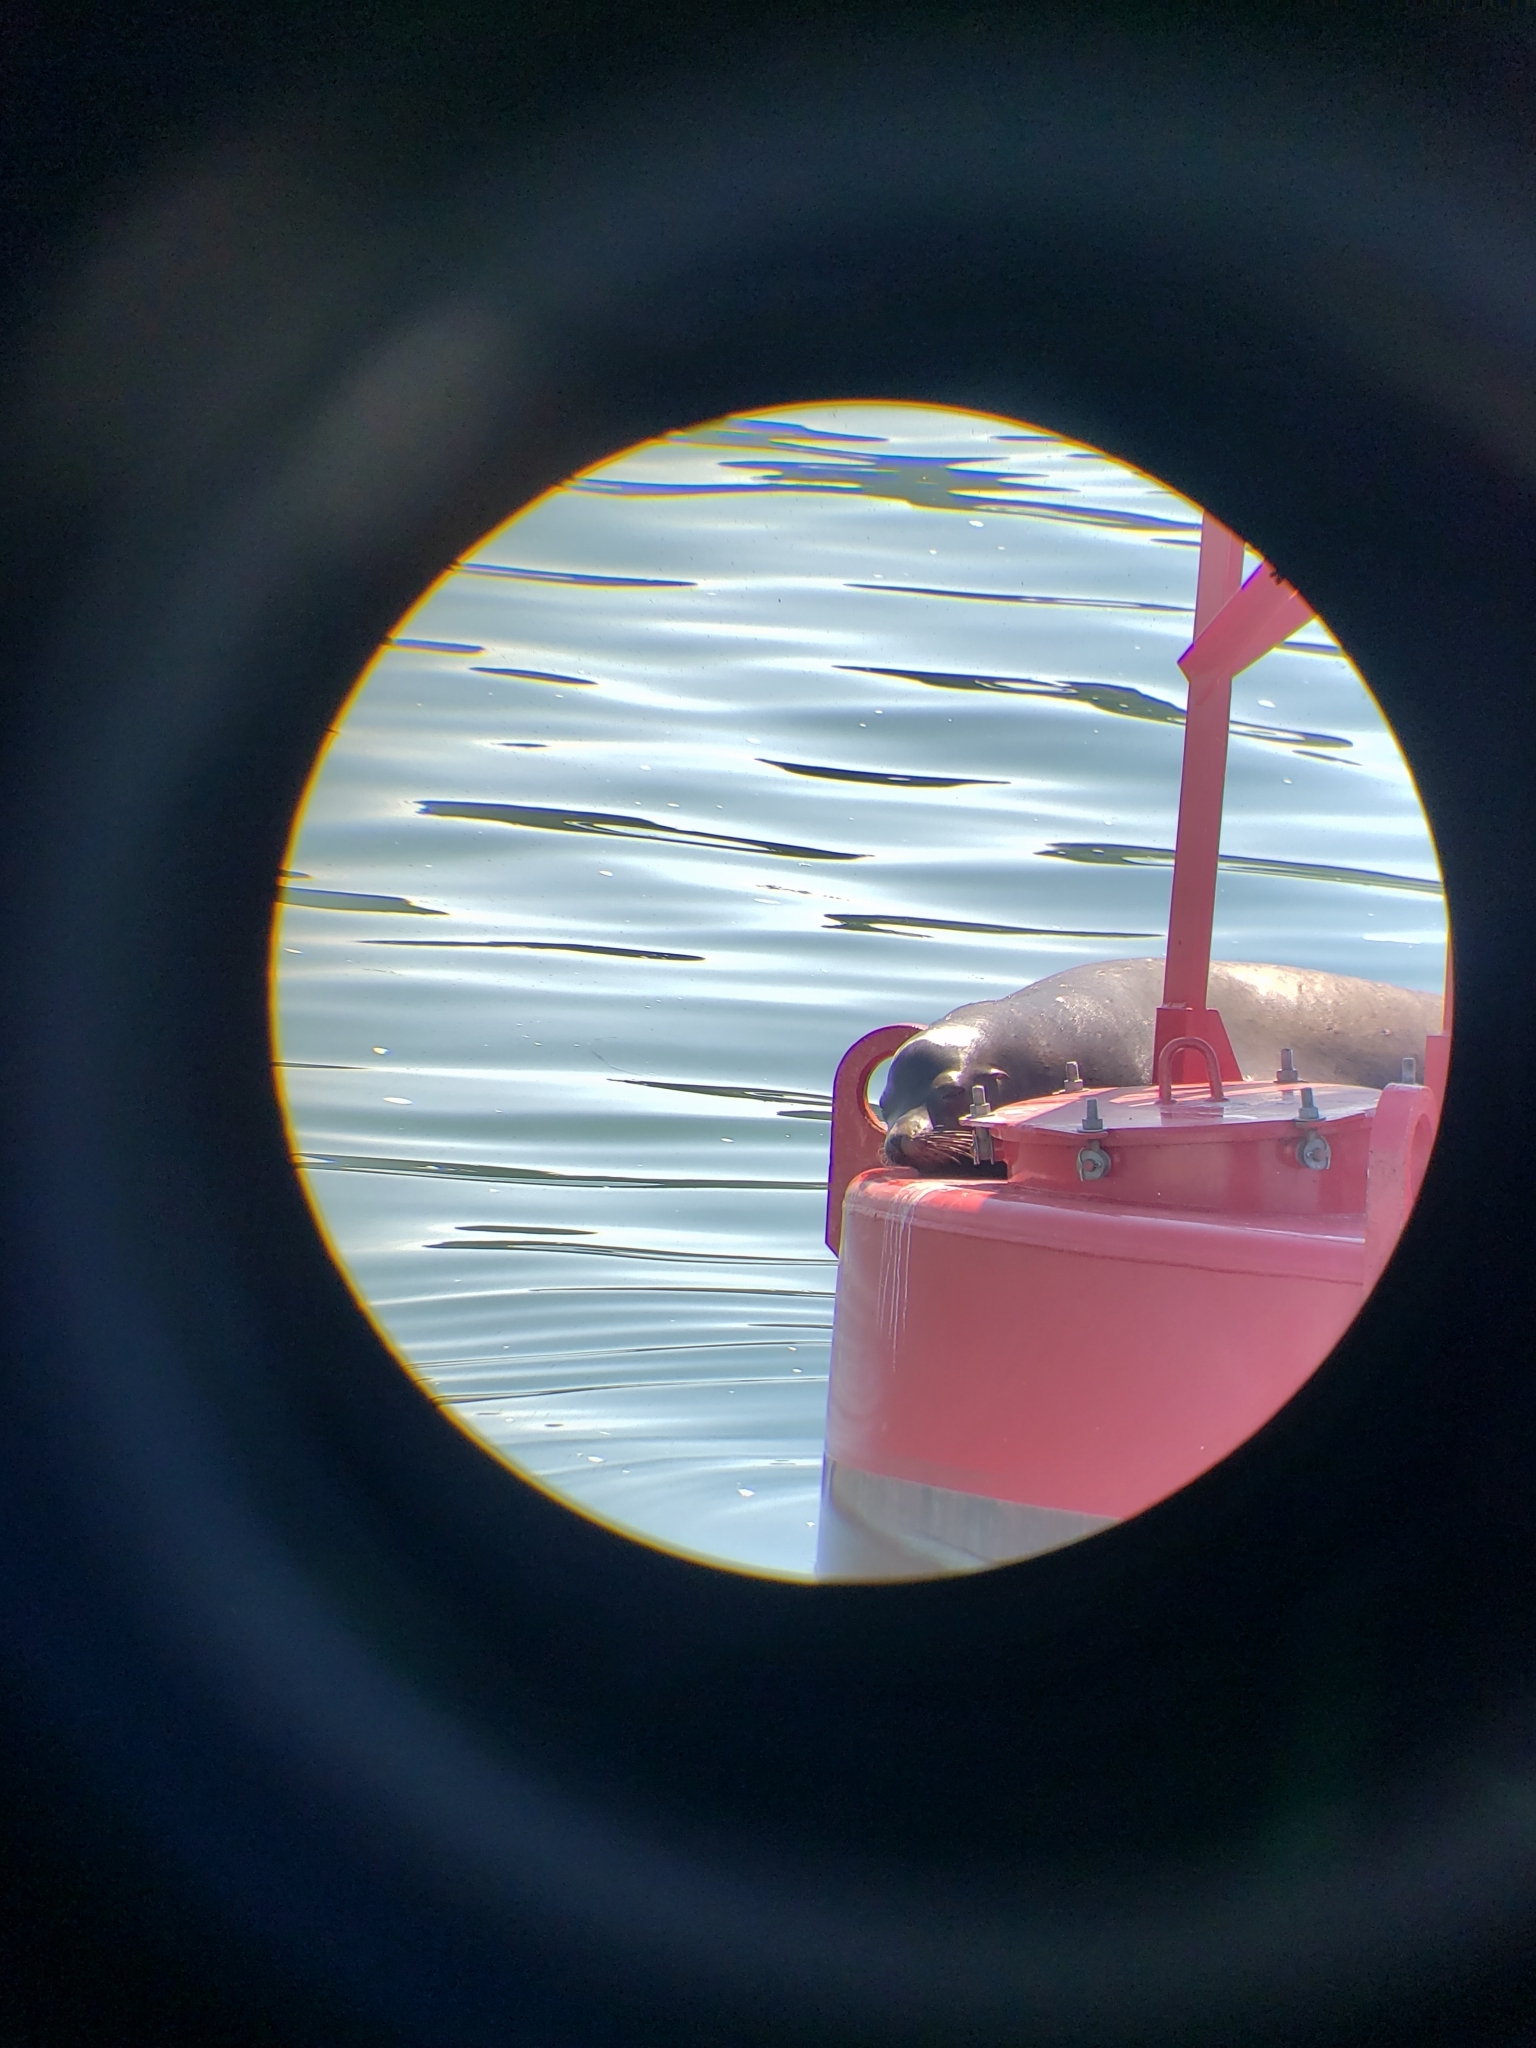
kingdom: Animalia
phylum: Chordata
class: Mammalia
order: Carnivora
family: Otariidae
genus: Zalophus
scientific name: Zalophus californianus
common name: California sea lion
